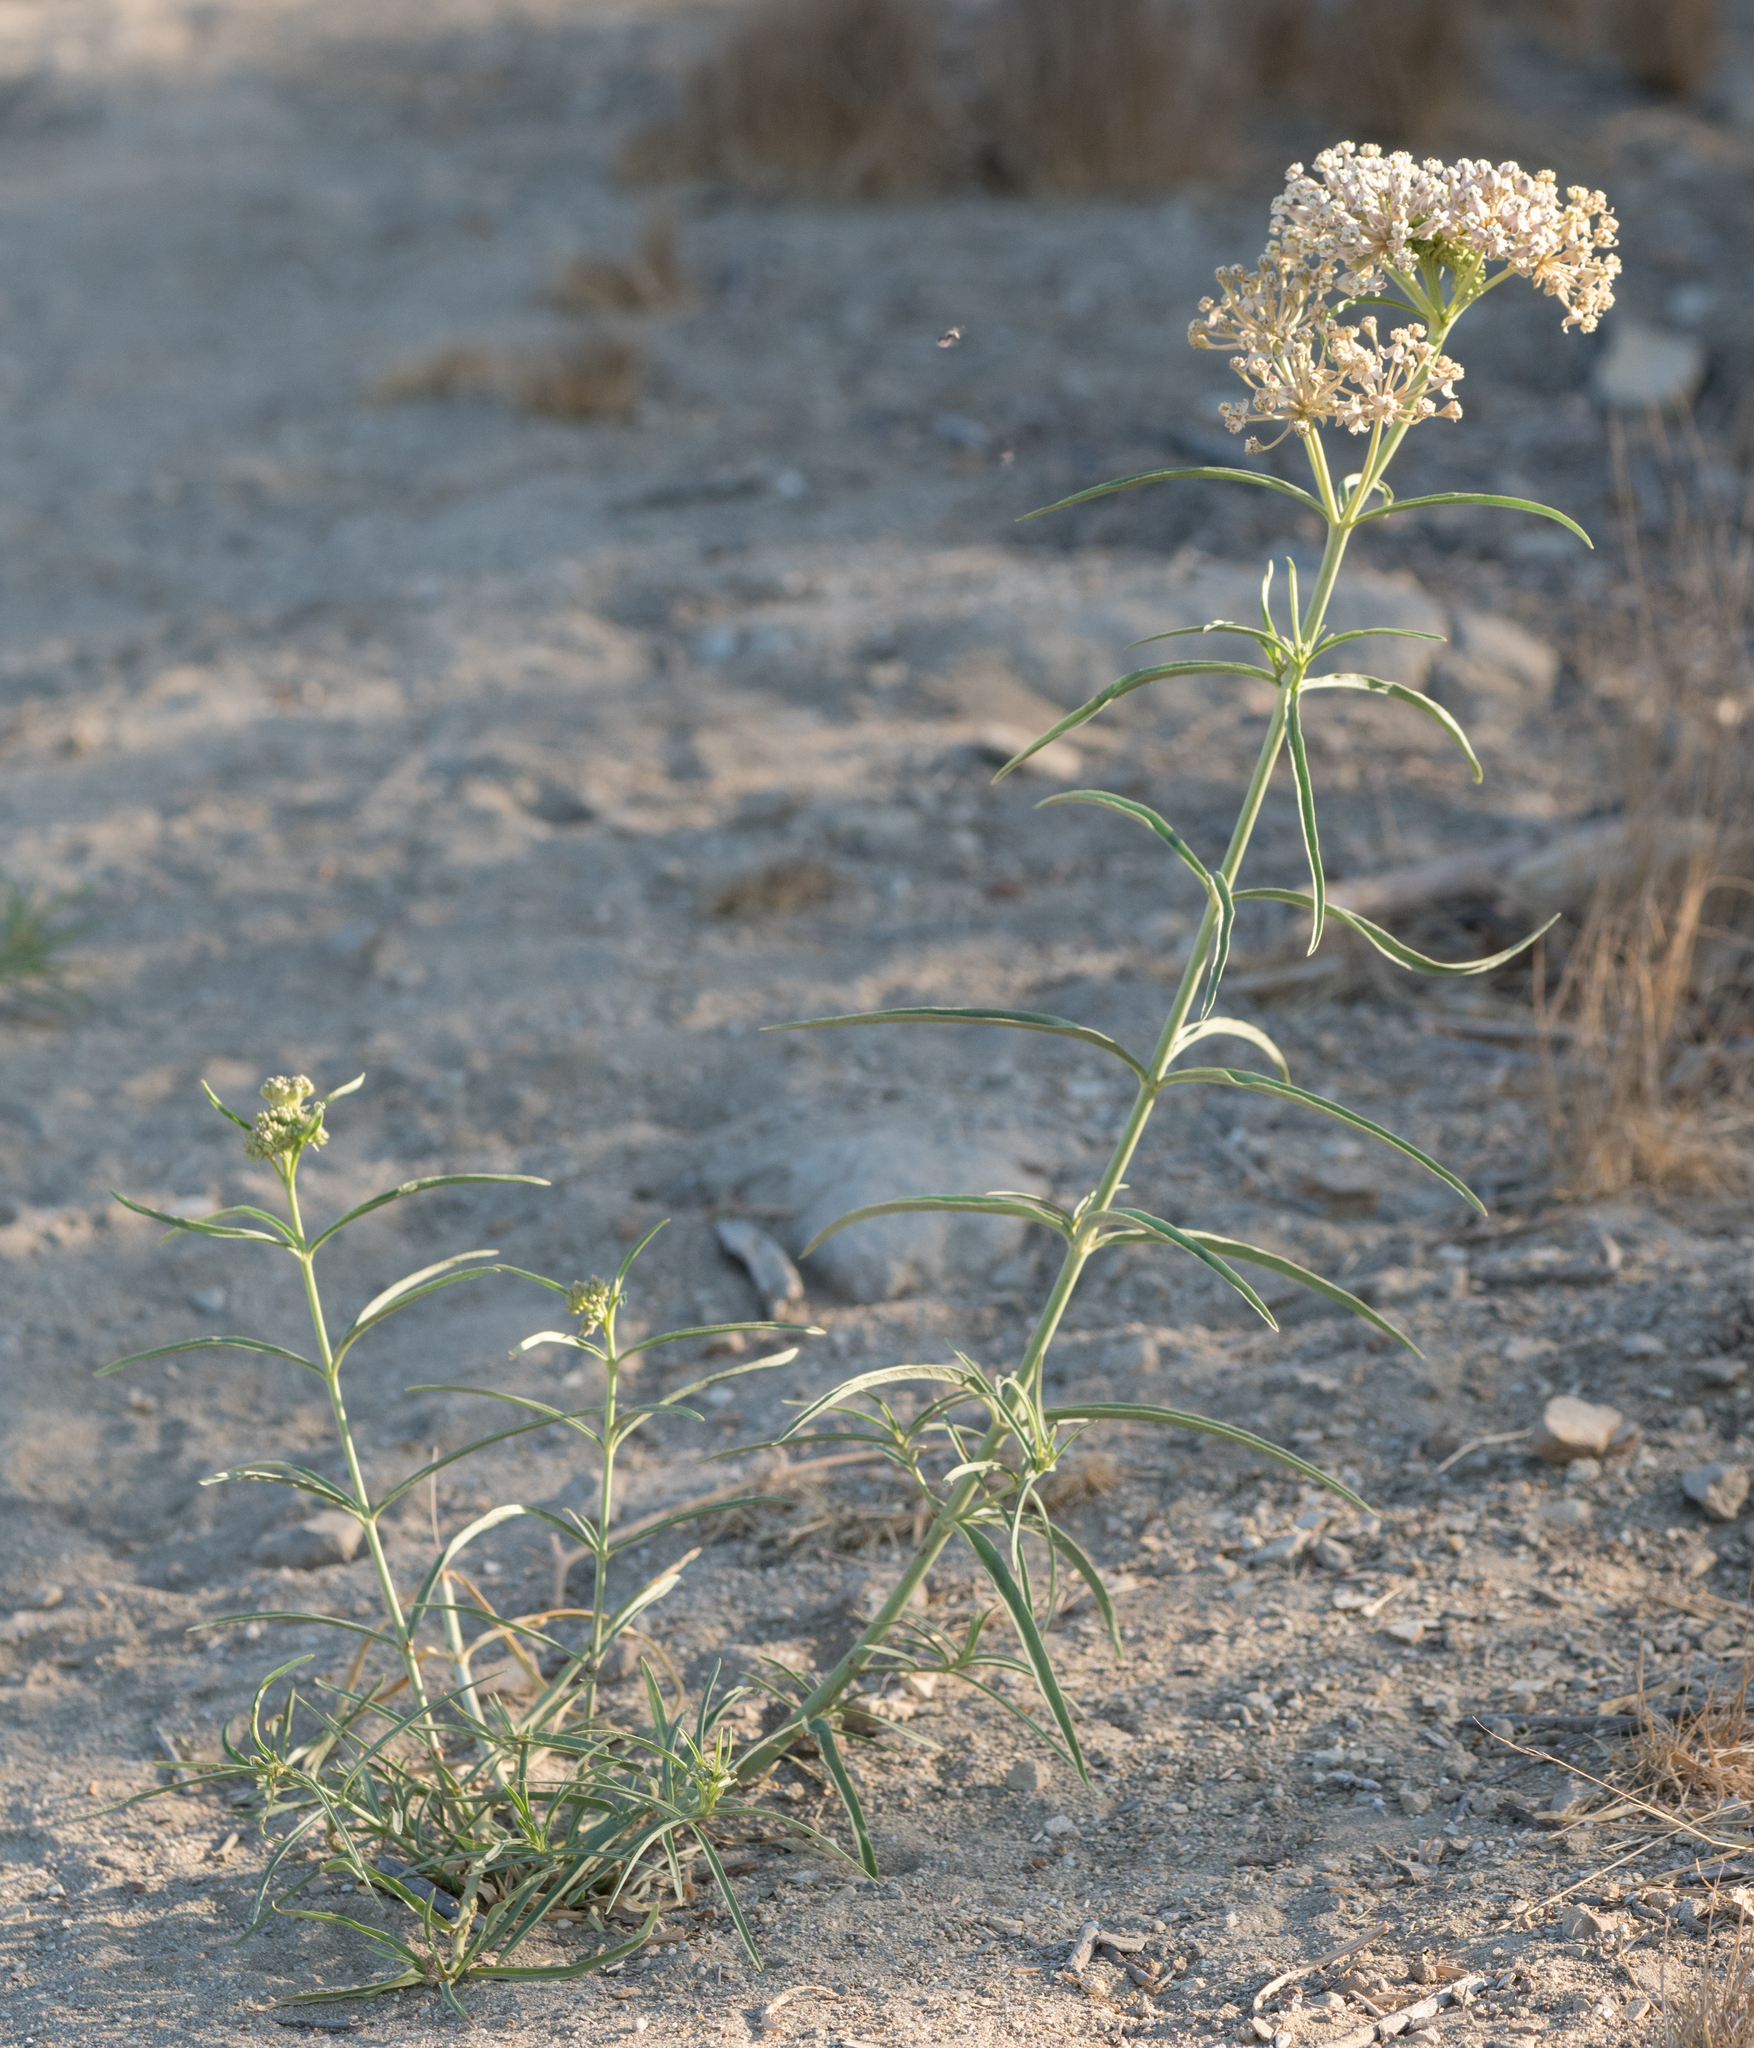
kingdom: Plantae
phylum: Tracheophyta
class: Magnoliopsida
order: Gentianales
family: Apocynaceae
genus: Asclepias
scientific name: Asclepias fascicularis
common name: Mexican milkweed
